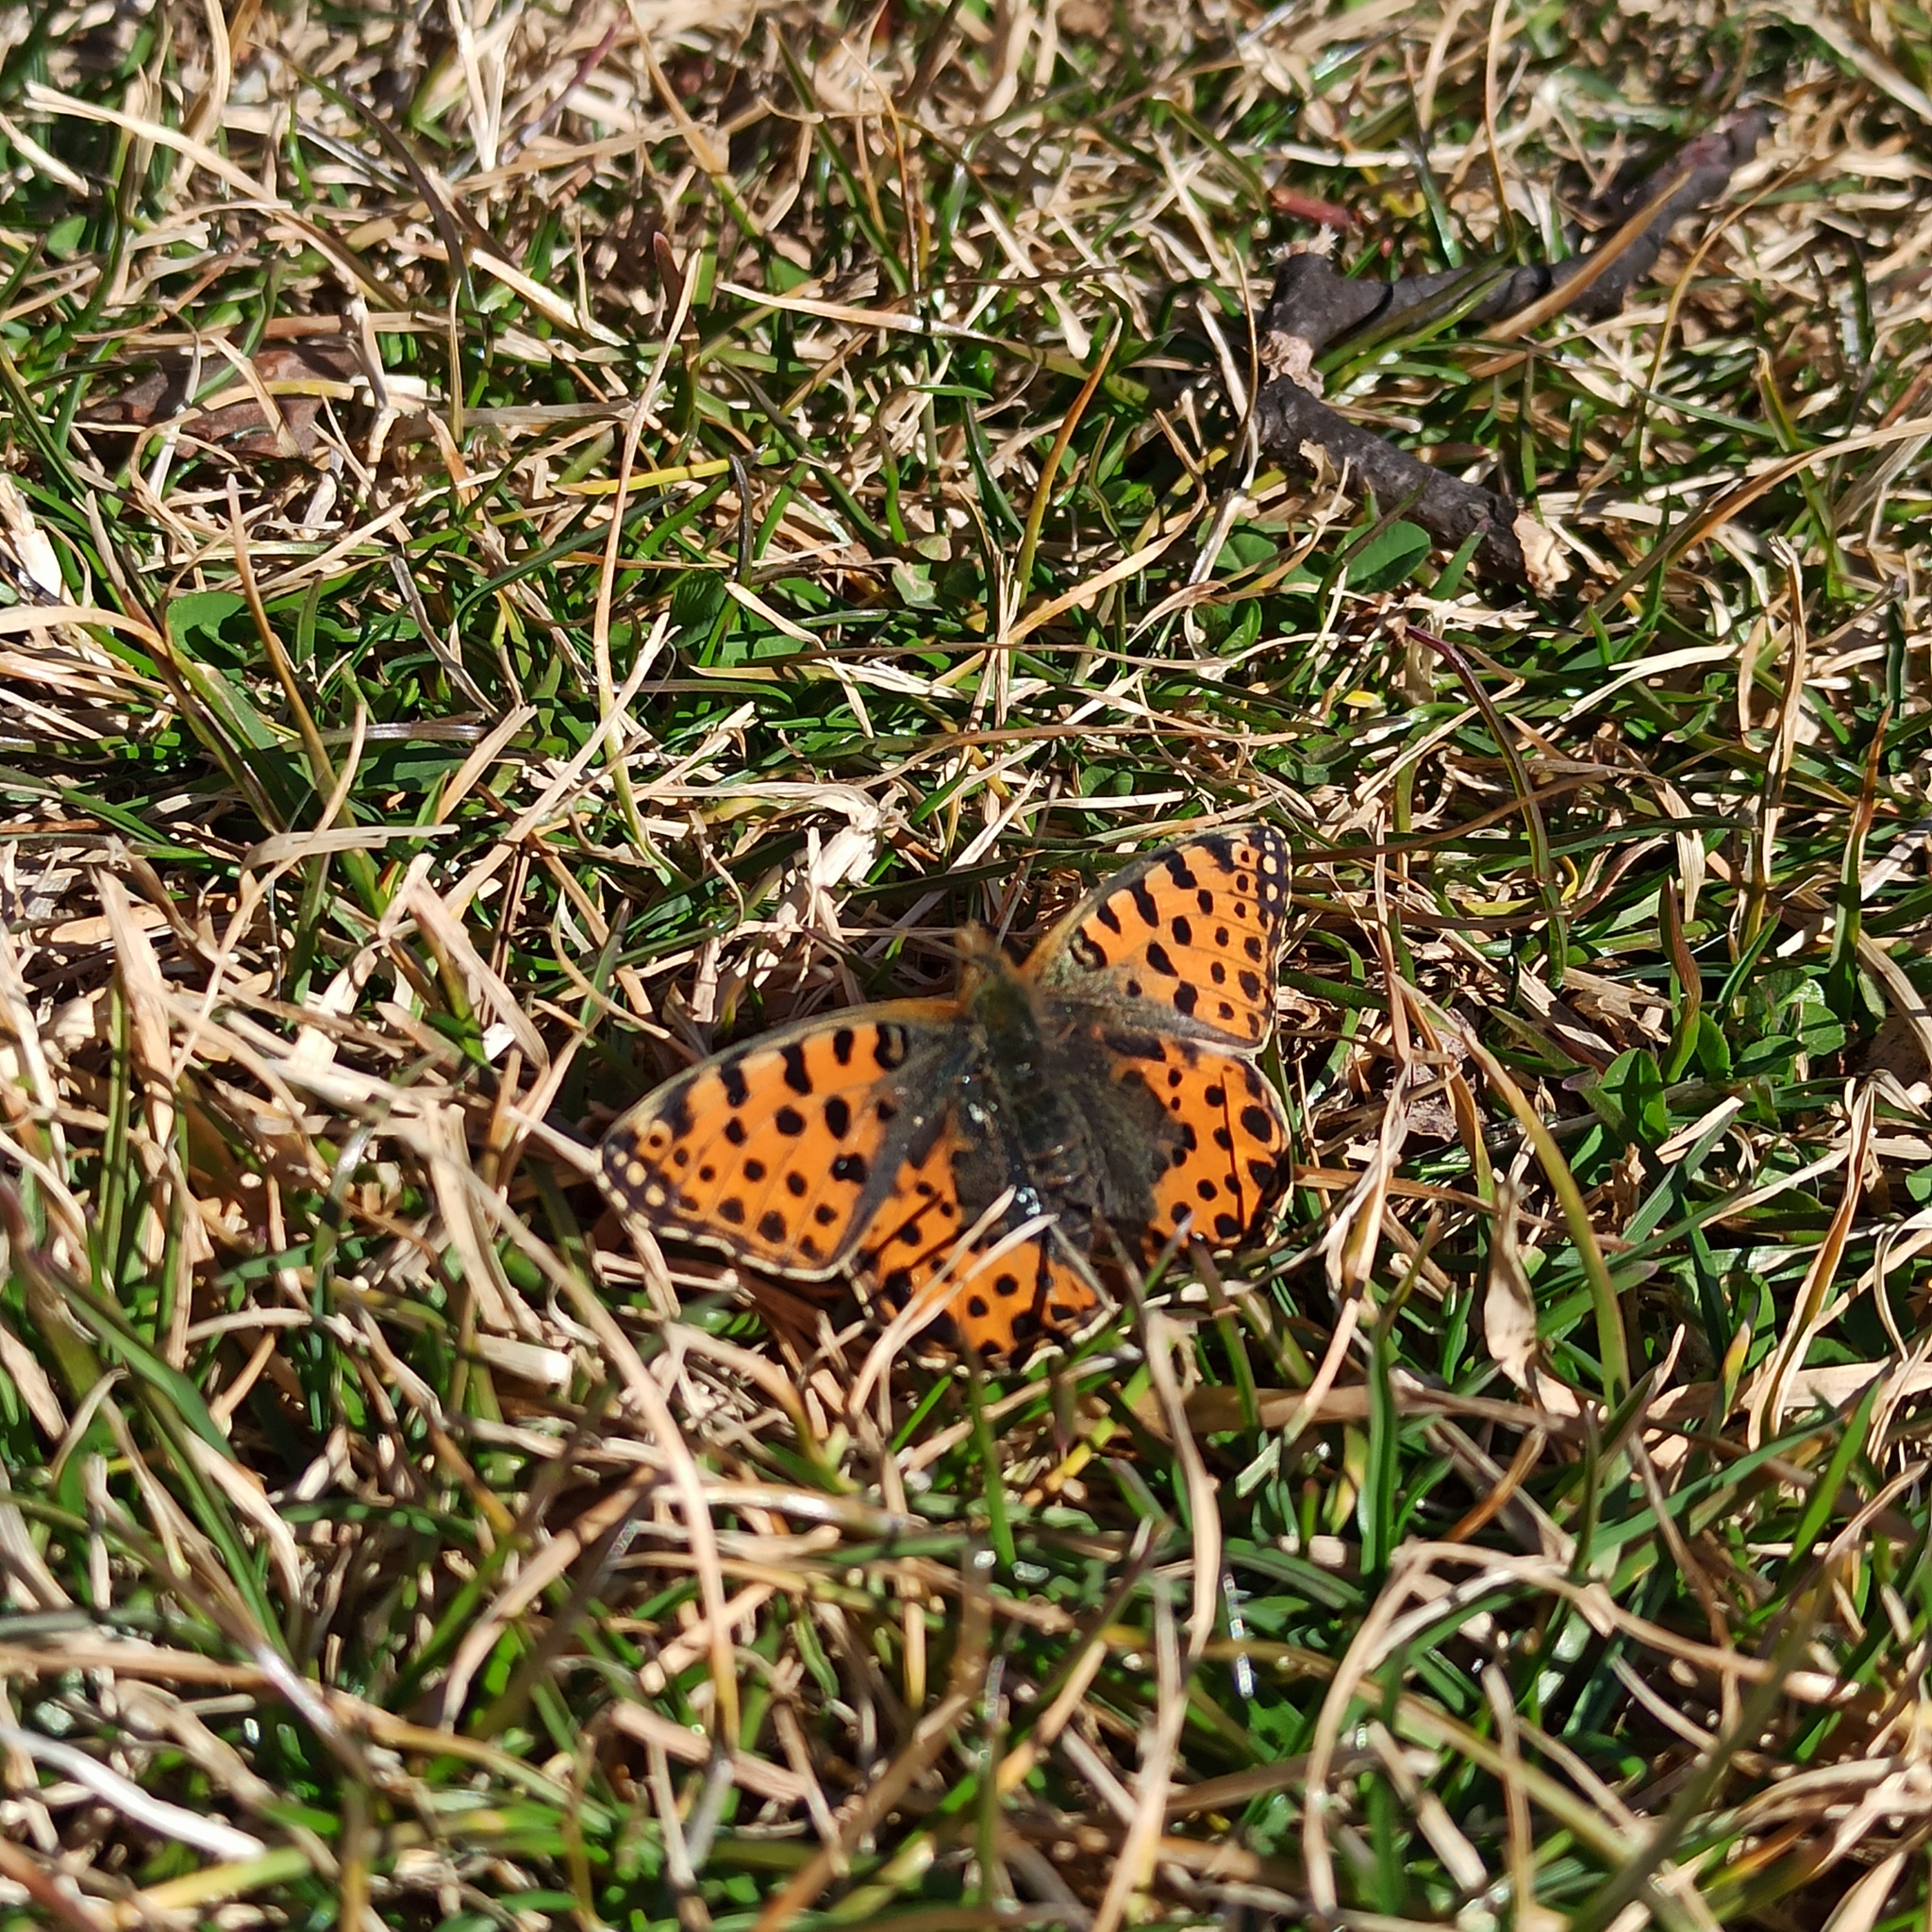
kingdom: Animalia
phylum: Arthropoda
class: Insecta
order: Lepidoptera
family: Nymphalidae
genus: Issoria
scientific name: Issoria lathonia
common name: Queen of spain fritillary
